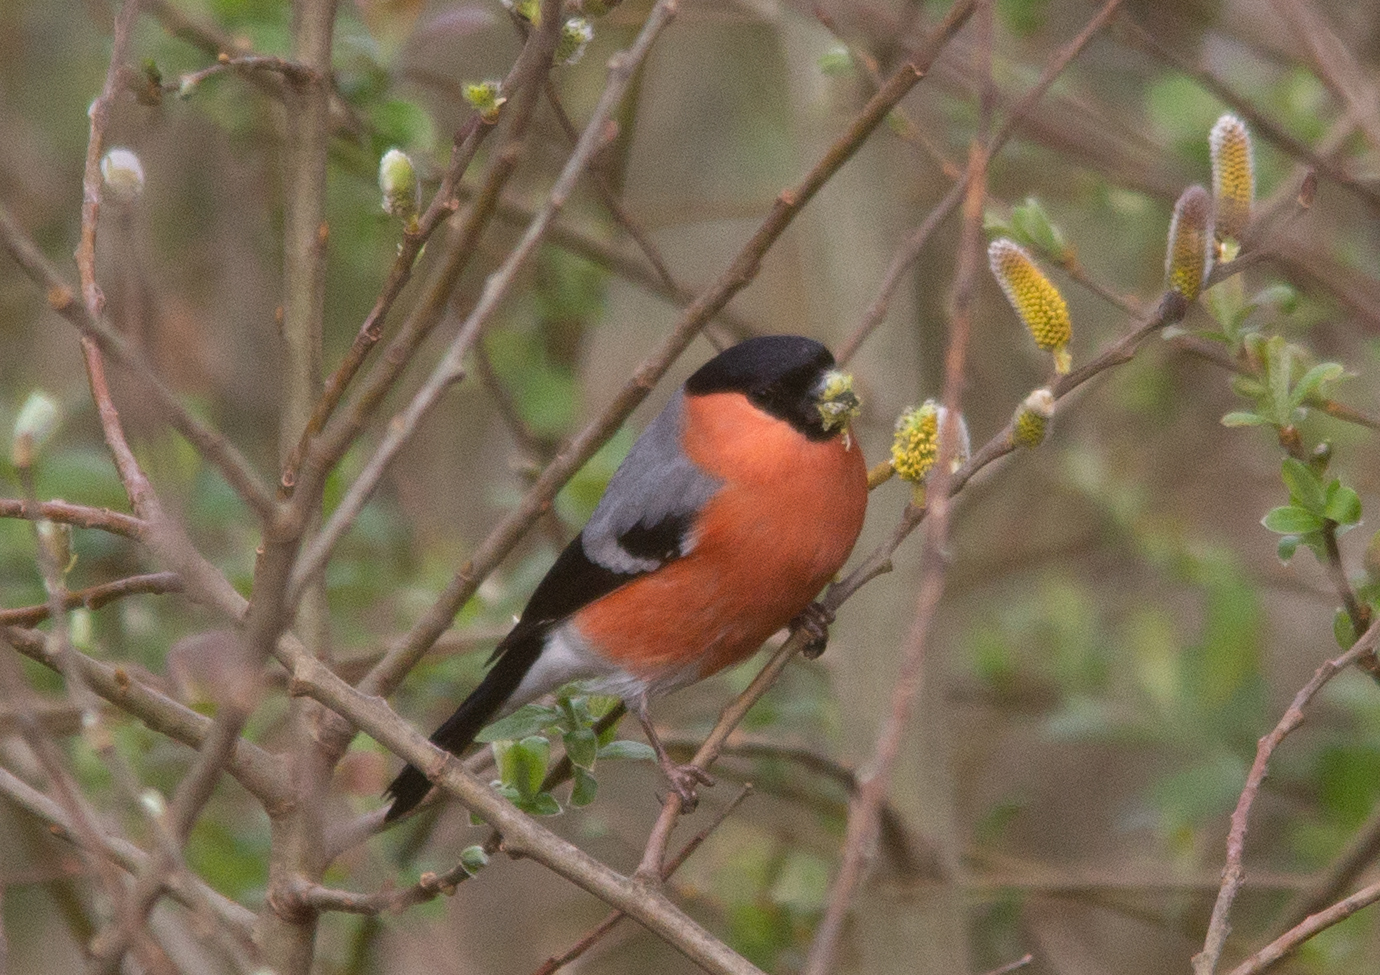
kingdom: Animalia
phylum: Chordata
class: Aves
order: Passeriformes
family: Fringillidae
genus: Pyrrhula
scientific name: Pyrrhula pyrrhula
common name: Eurasian bullfinch
